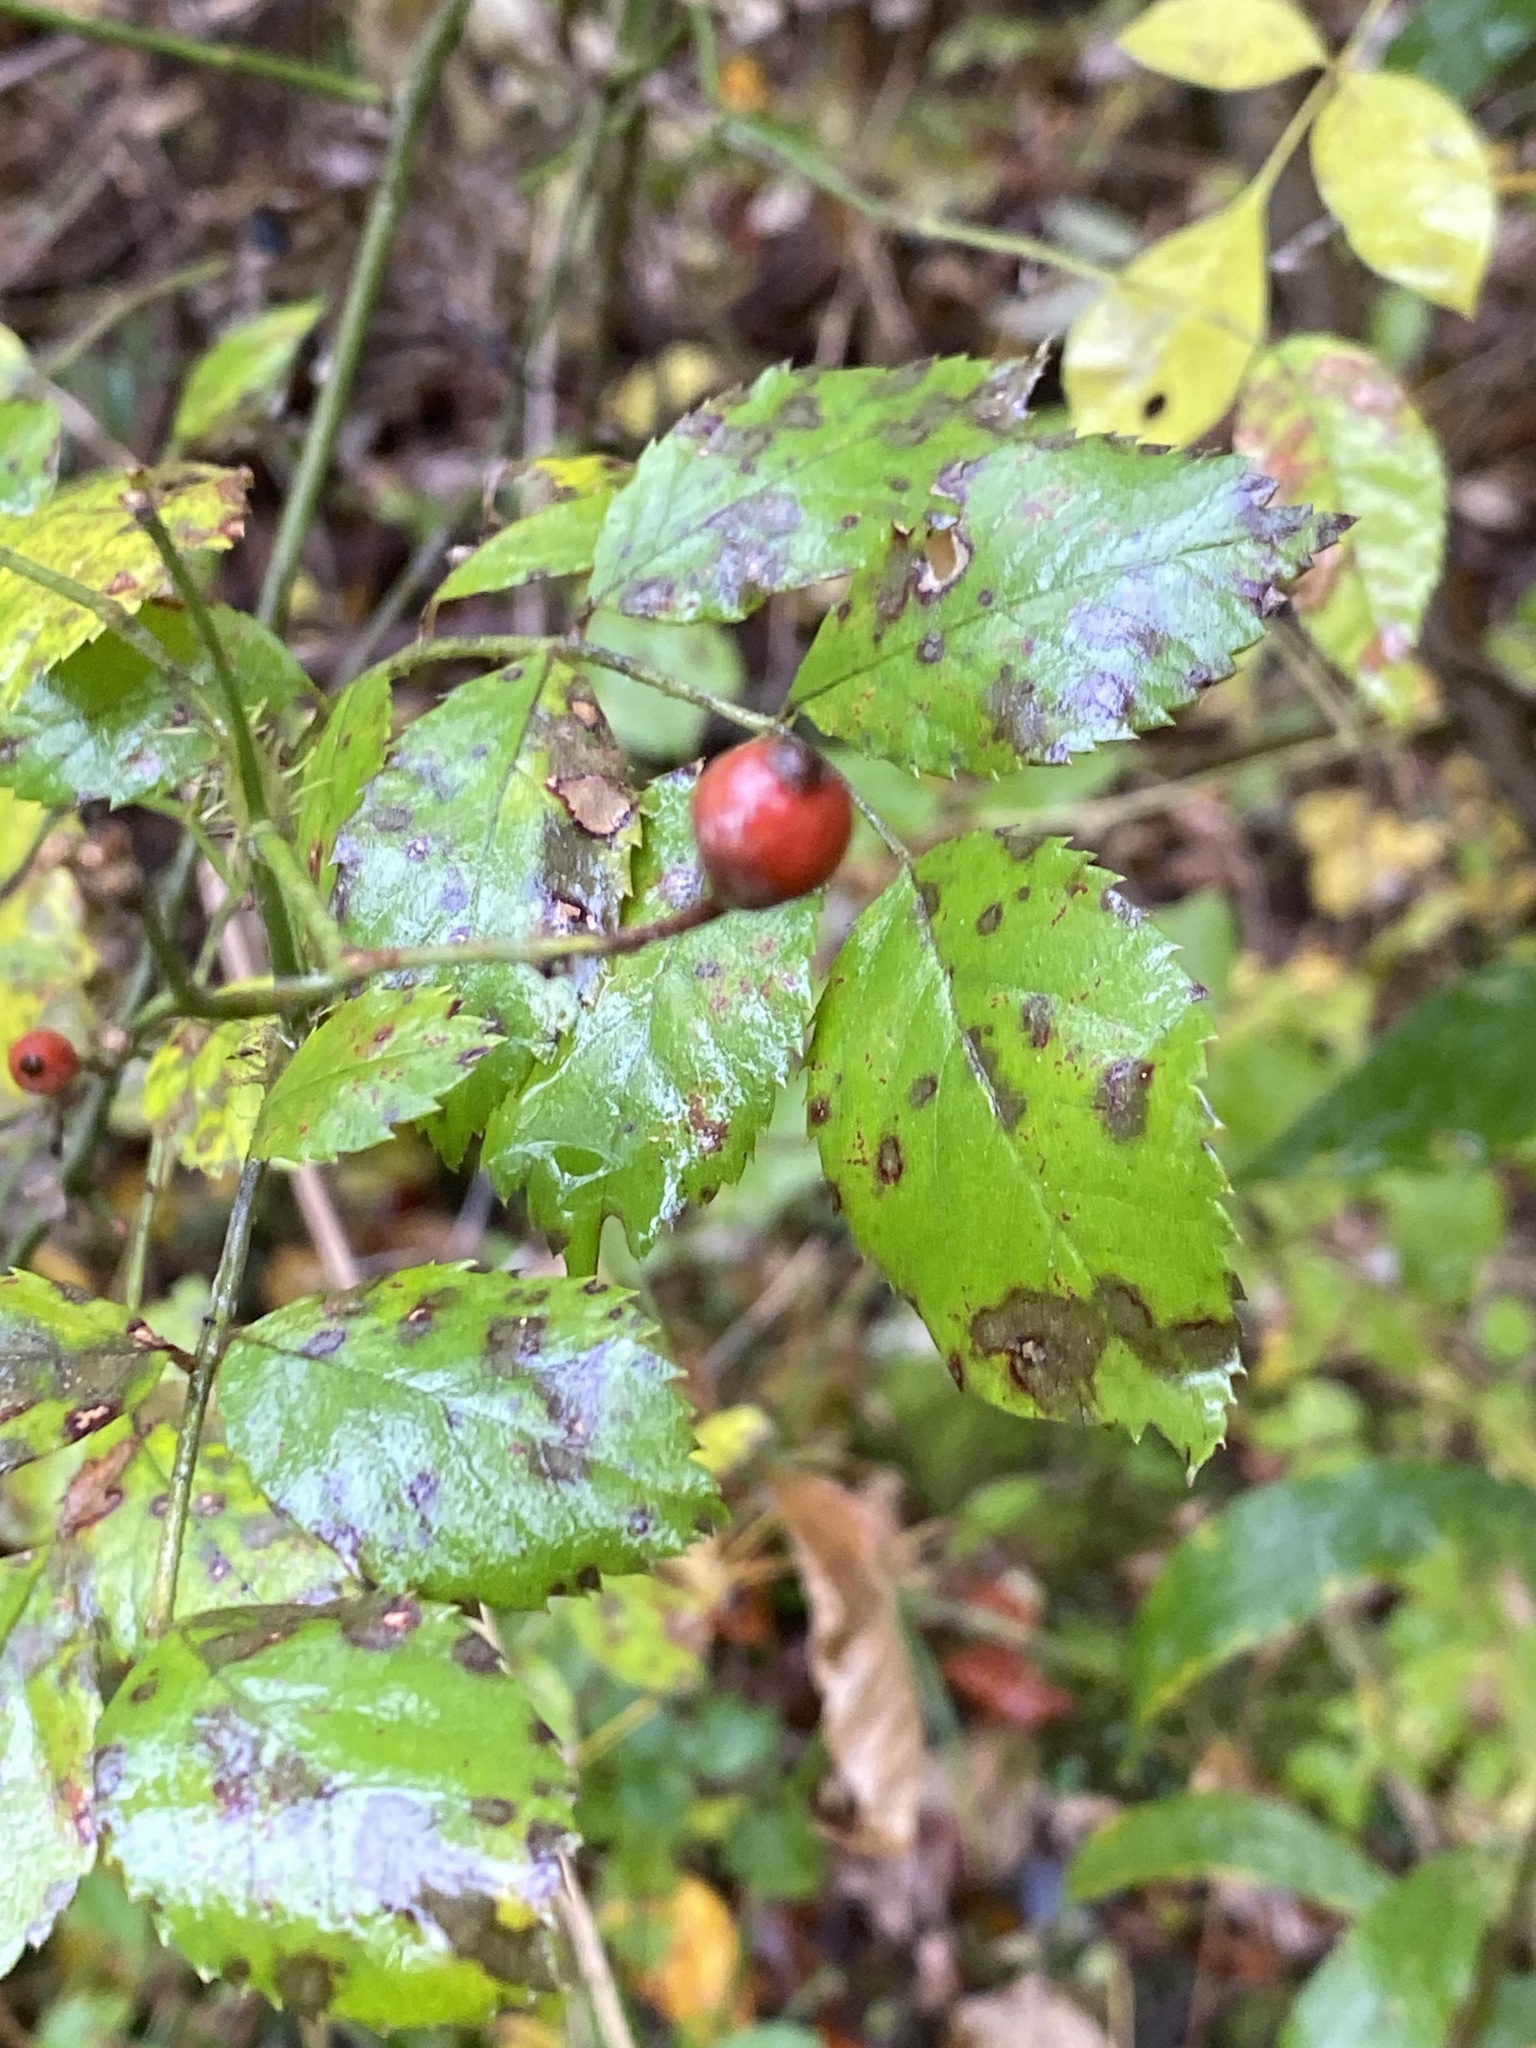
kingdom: Viruses
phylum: Negarnaviricota
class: Ellioviricetes
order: Bunyavirales
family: Fimoviridae
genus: Emaravirus
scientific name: Emaravirus rosae
